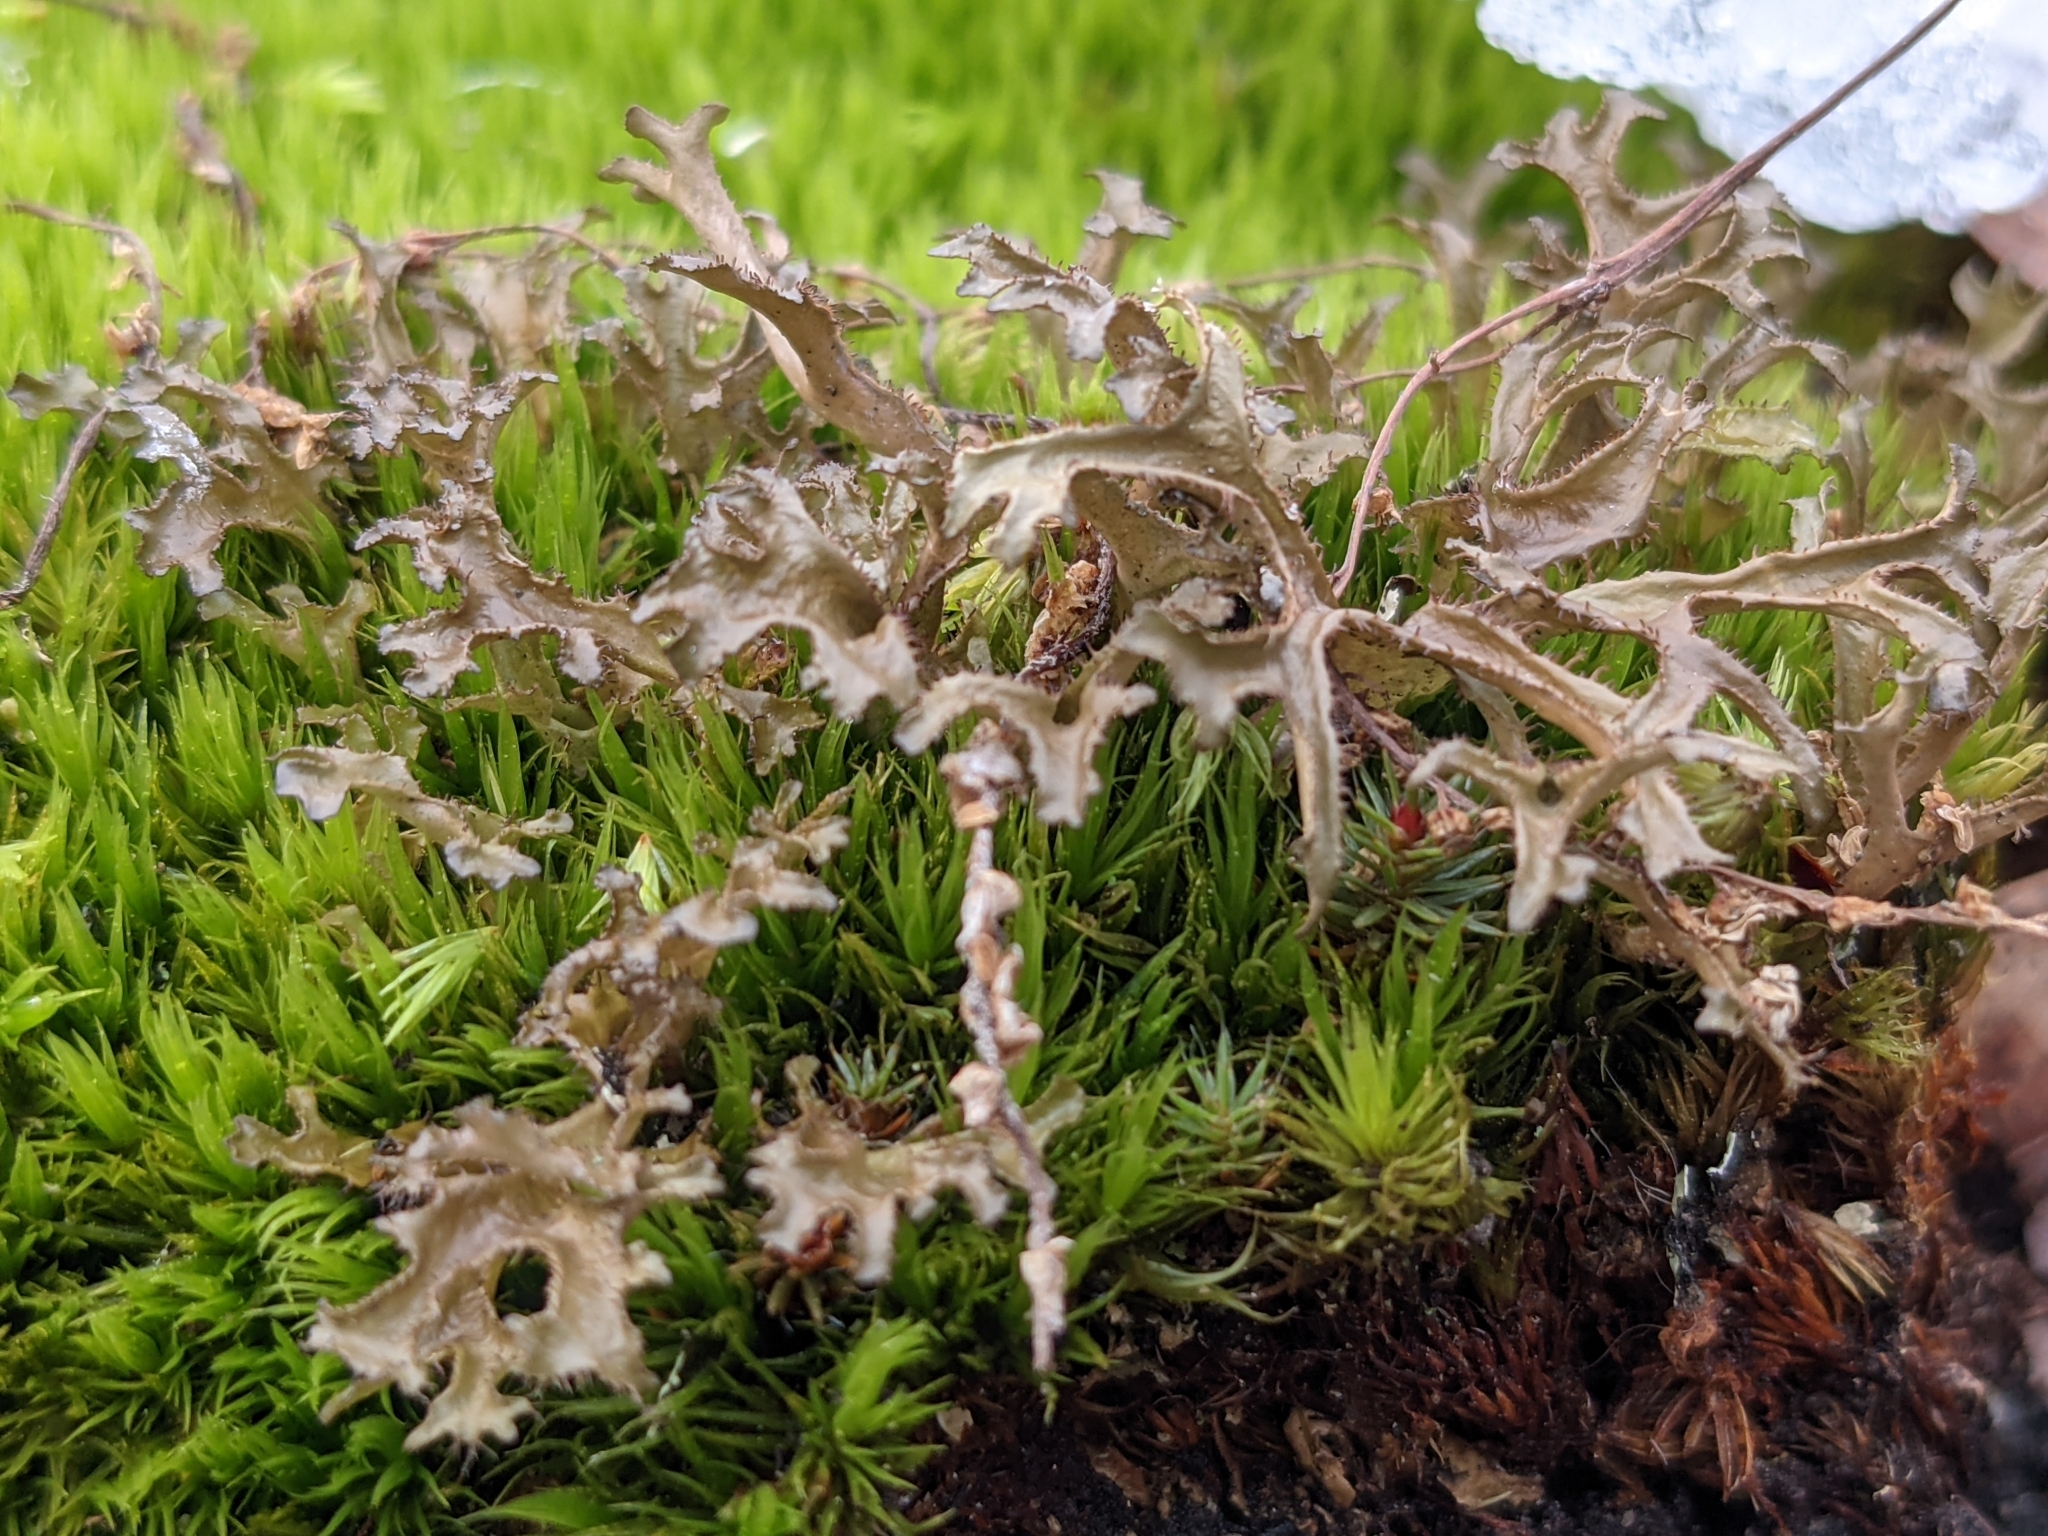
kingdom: Fungi
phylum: Ascomycota
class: Lecanoromycetes
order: Lecanorales
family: Parmeliaceae
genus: Cetraria
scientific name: Cetraria arenaria
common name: Sand-loving iceland lichen
